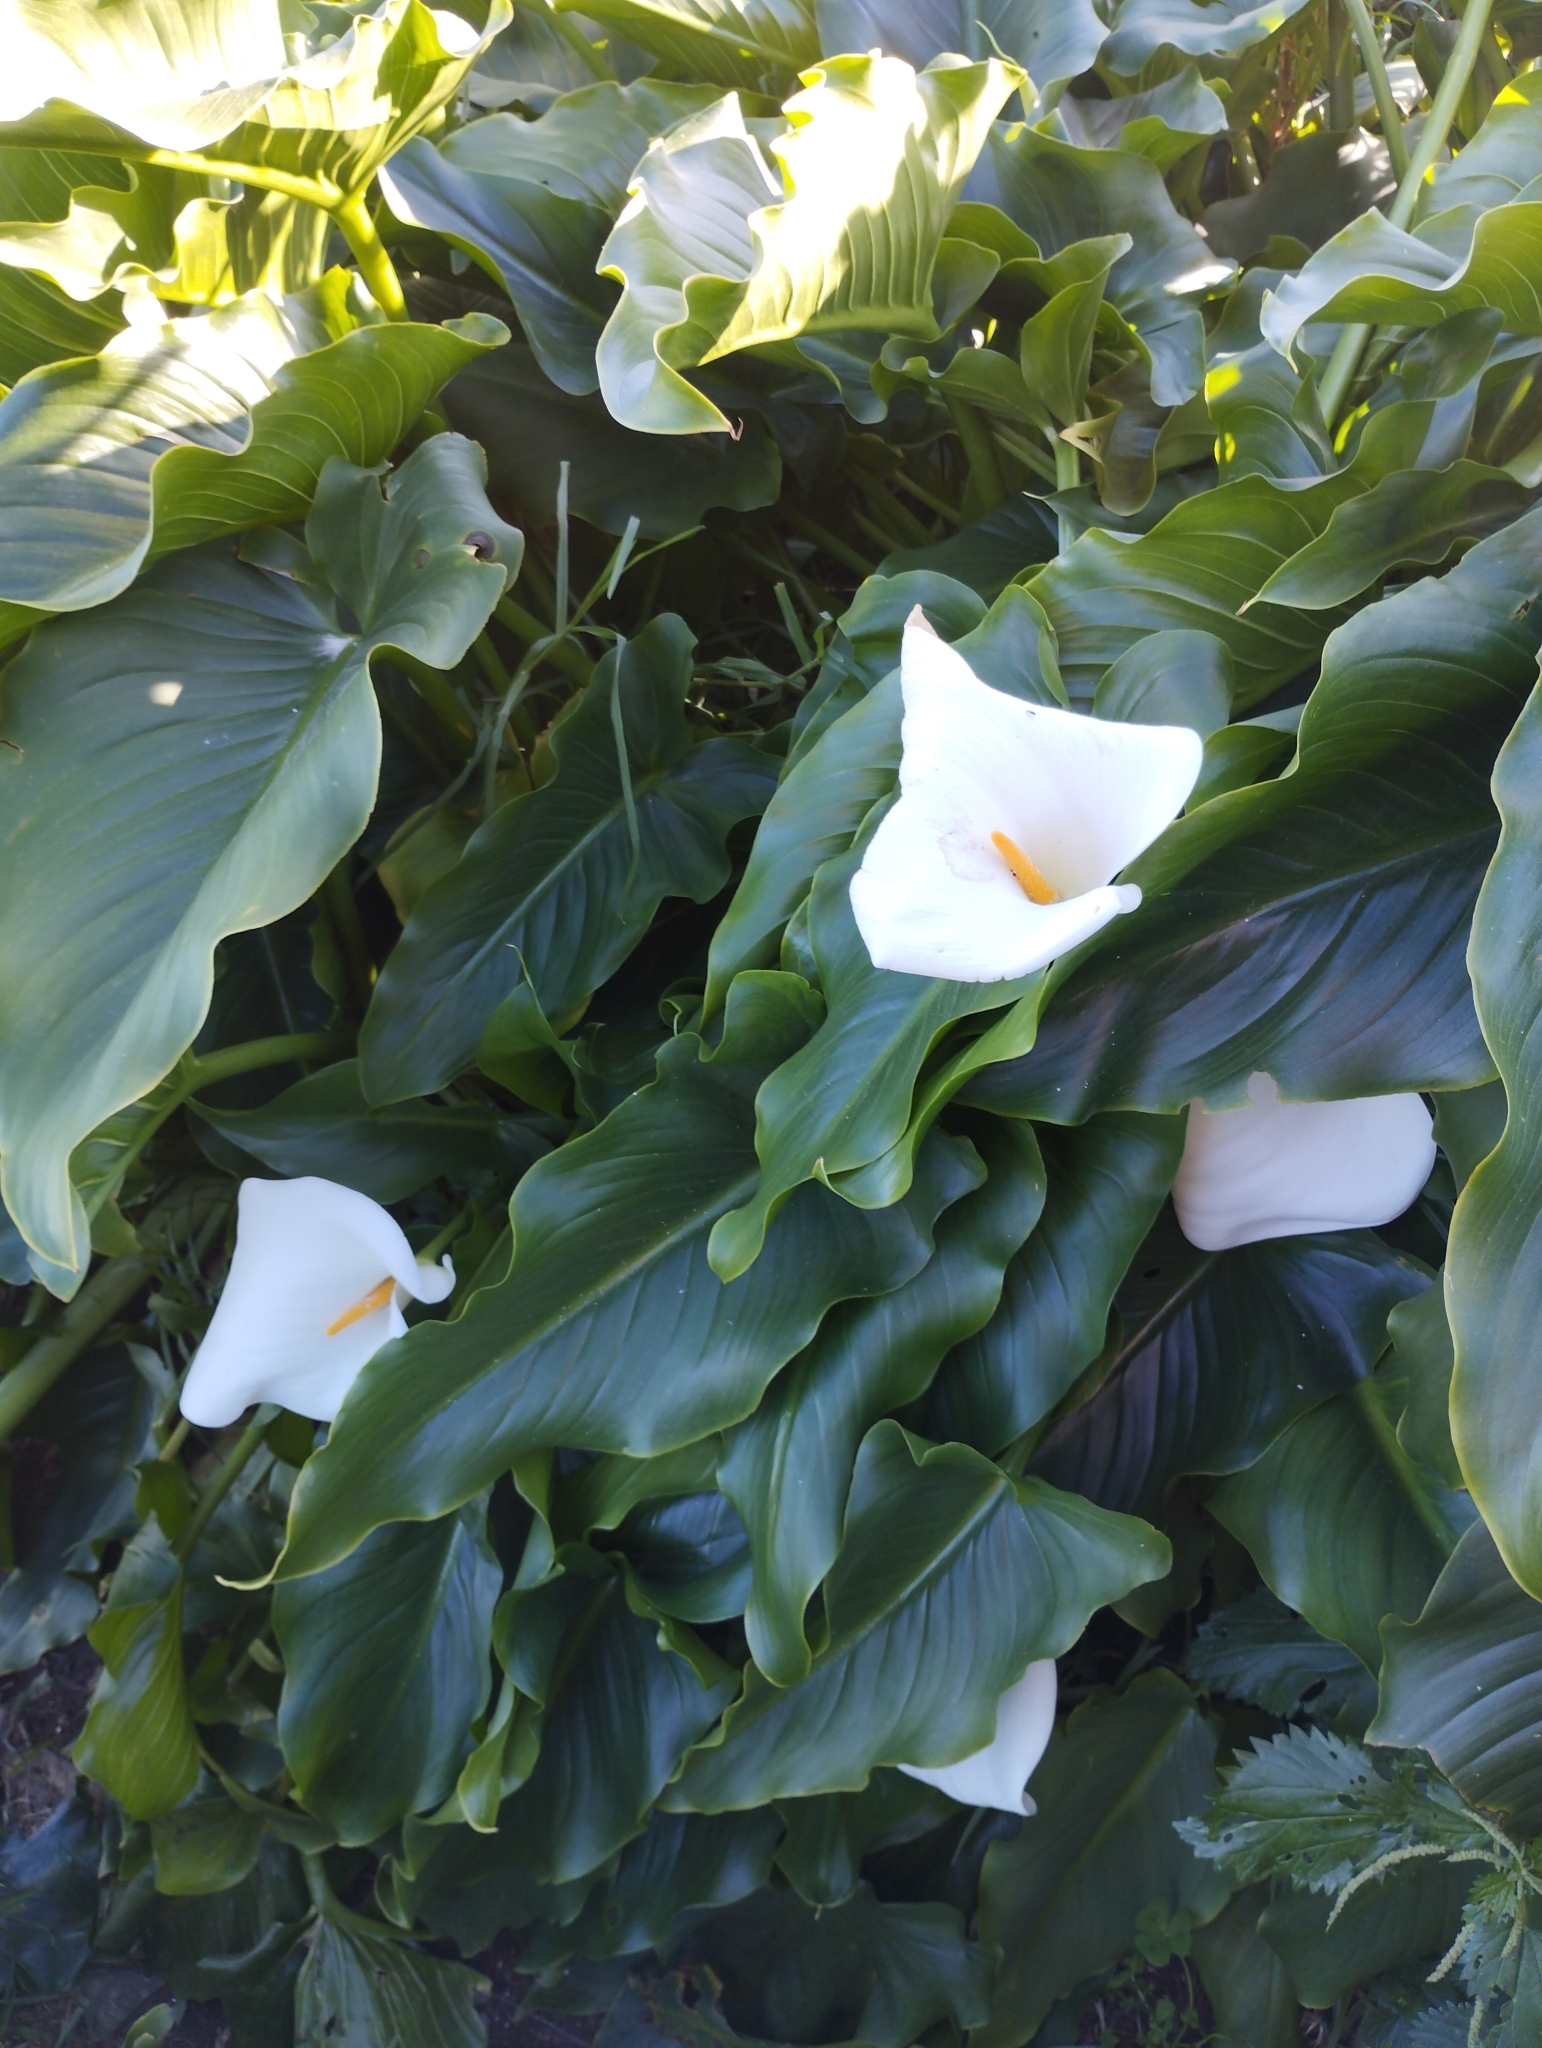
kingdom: Plantae
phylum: Tracheophyta
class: Liliopsida
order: Alismatales
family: Araceae
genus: Zantedeschia
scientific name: Zantedeschia aethiopica
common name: Altar-lily
